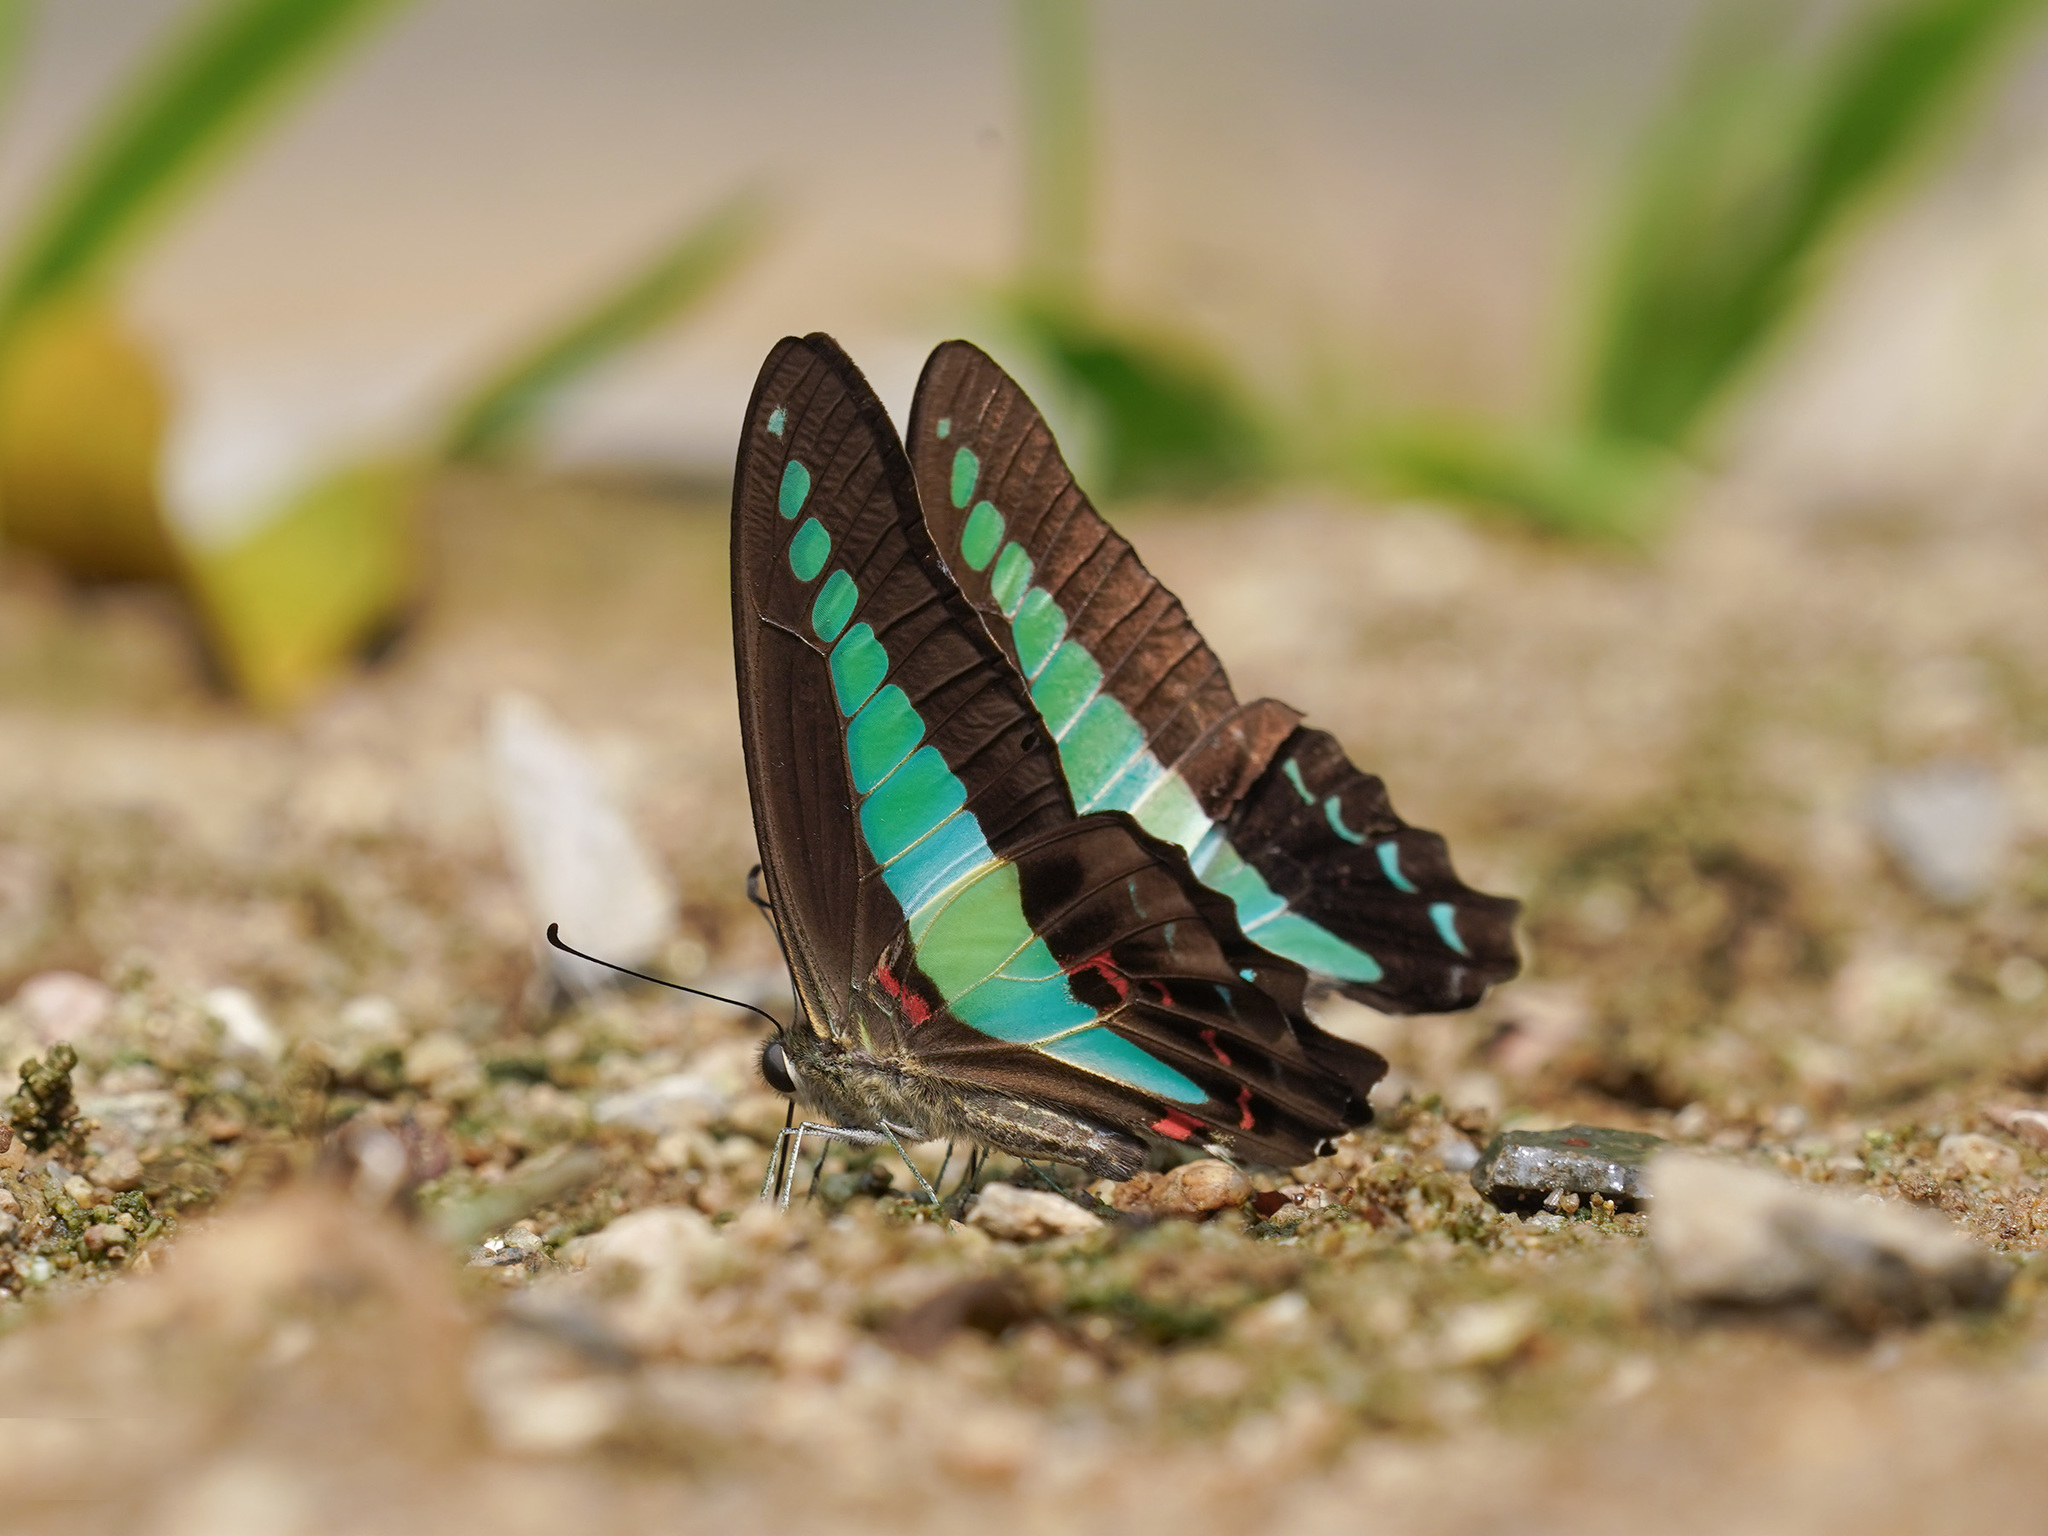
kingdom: Fungi
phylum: Ascomycota
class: Sordariomycetes
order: Microascales
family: Microascaceae
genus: Graphium
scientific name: Graphium sarpedon
